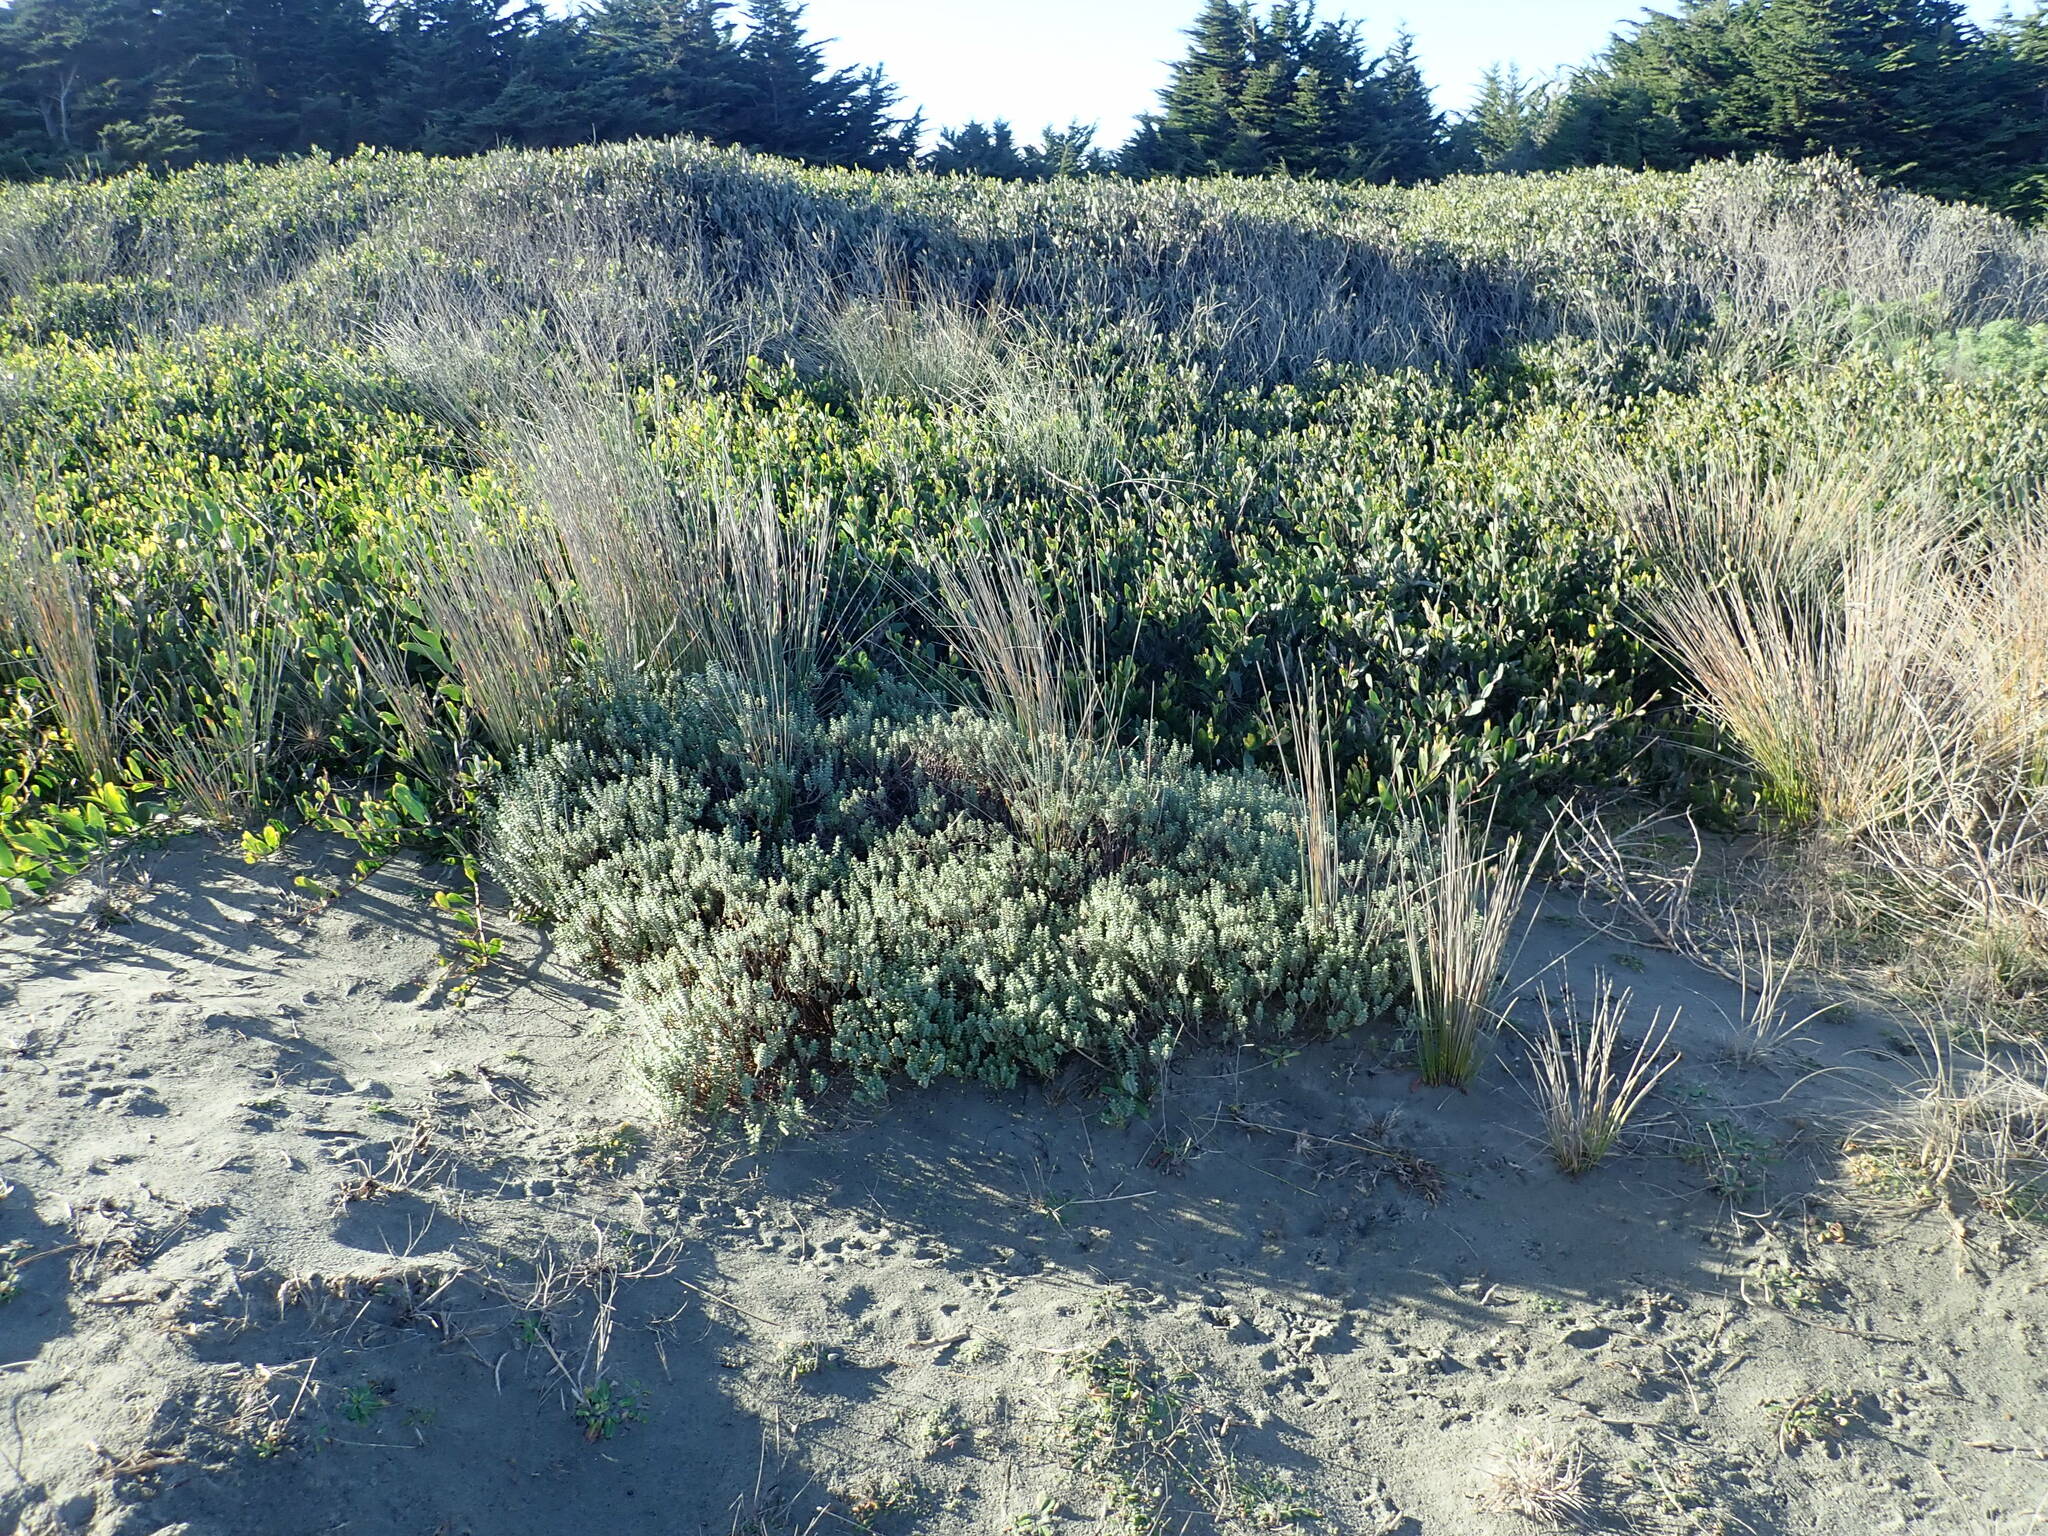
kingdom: Plantae
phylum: Tracheophyta
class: Magnoliopsida
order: Fabales
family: Fabaceae
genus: Acacia
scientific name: Acacia longifolia
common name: Sydney golden wattle
